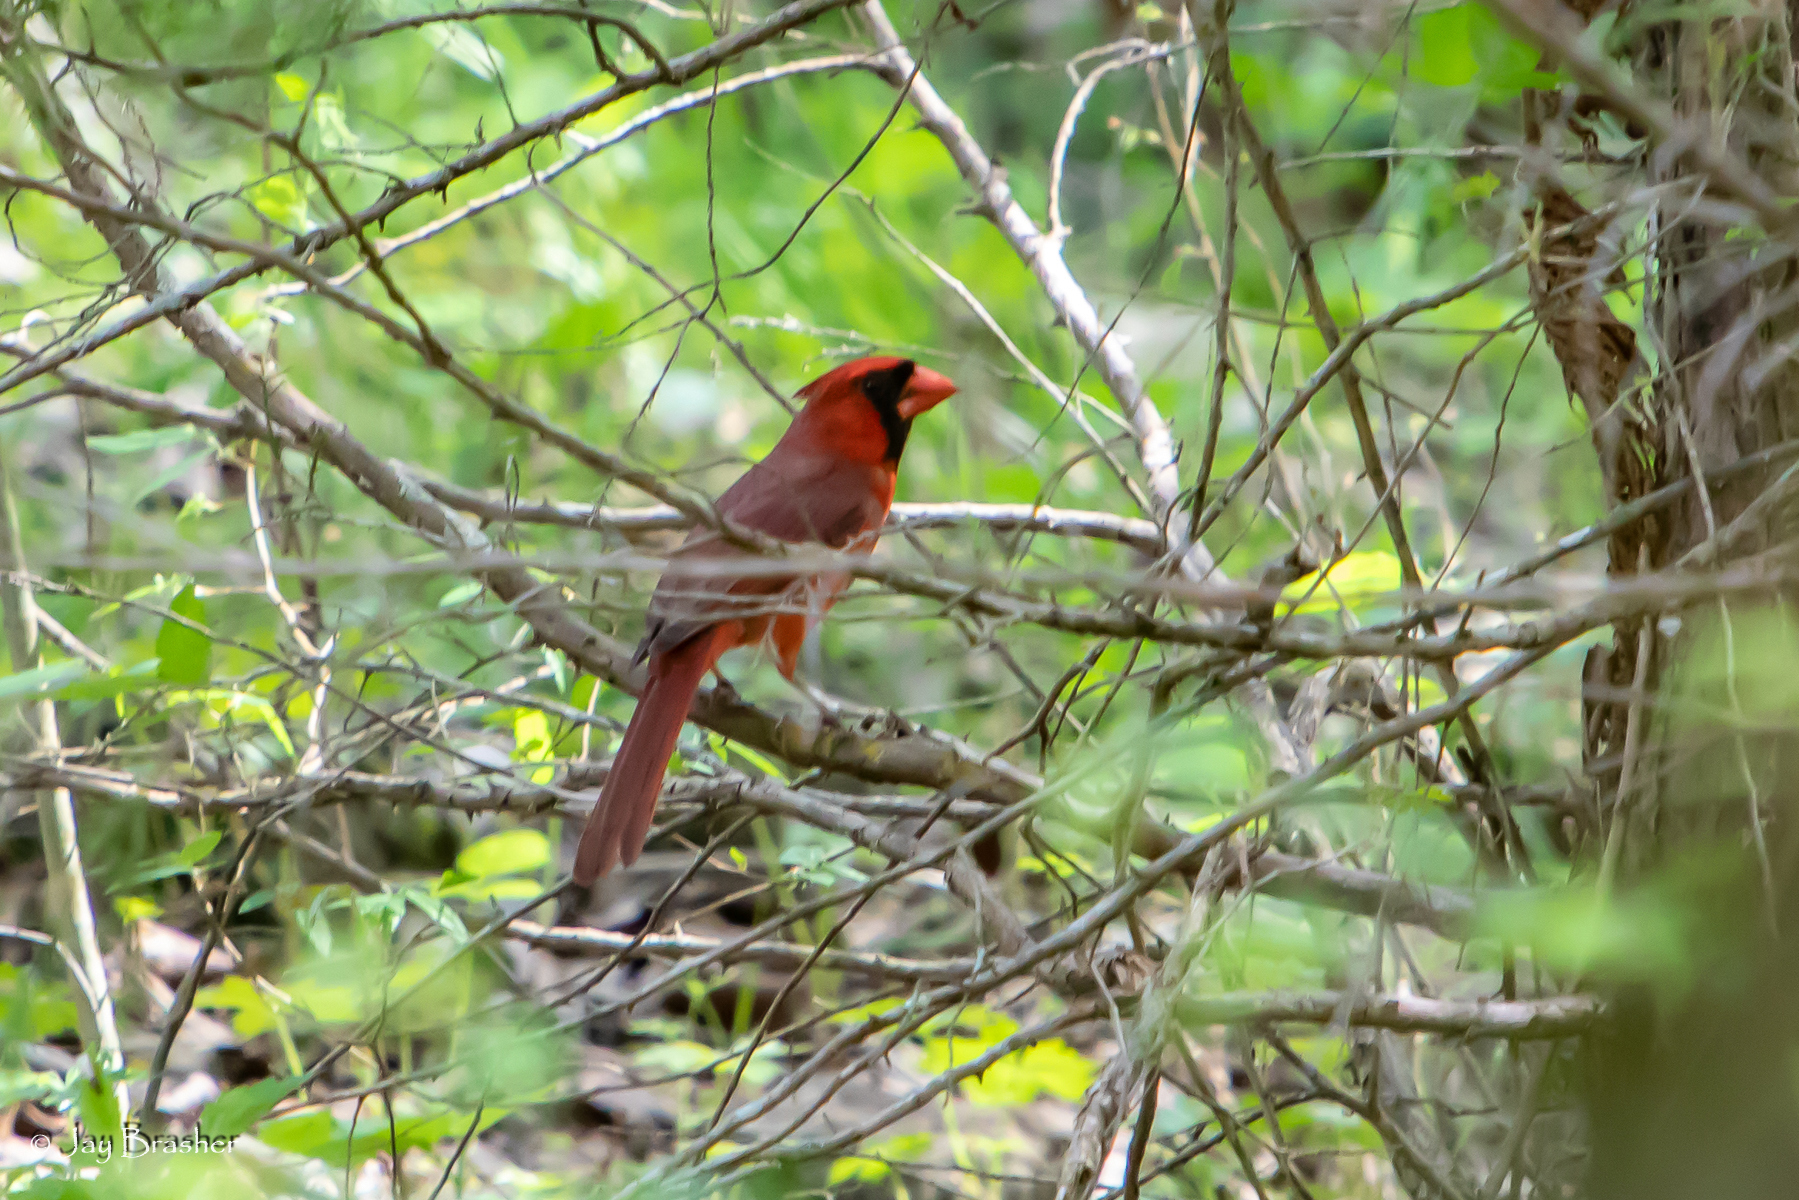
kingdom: Animalia
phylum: Chordata
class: Aves
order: Passeriformes
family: Cardinalidae
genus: Cardinalis
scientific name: Cardinalis cardinalis
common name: Northern cardinal
